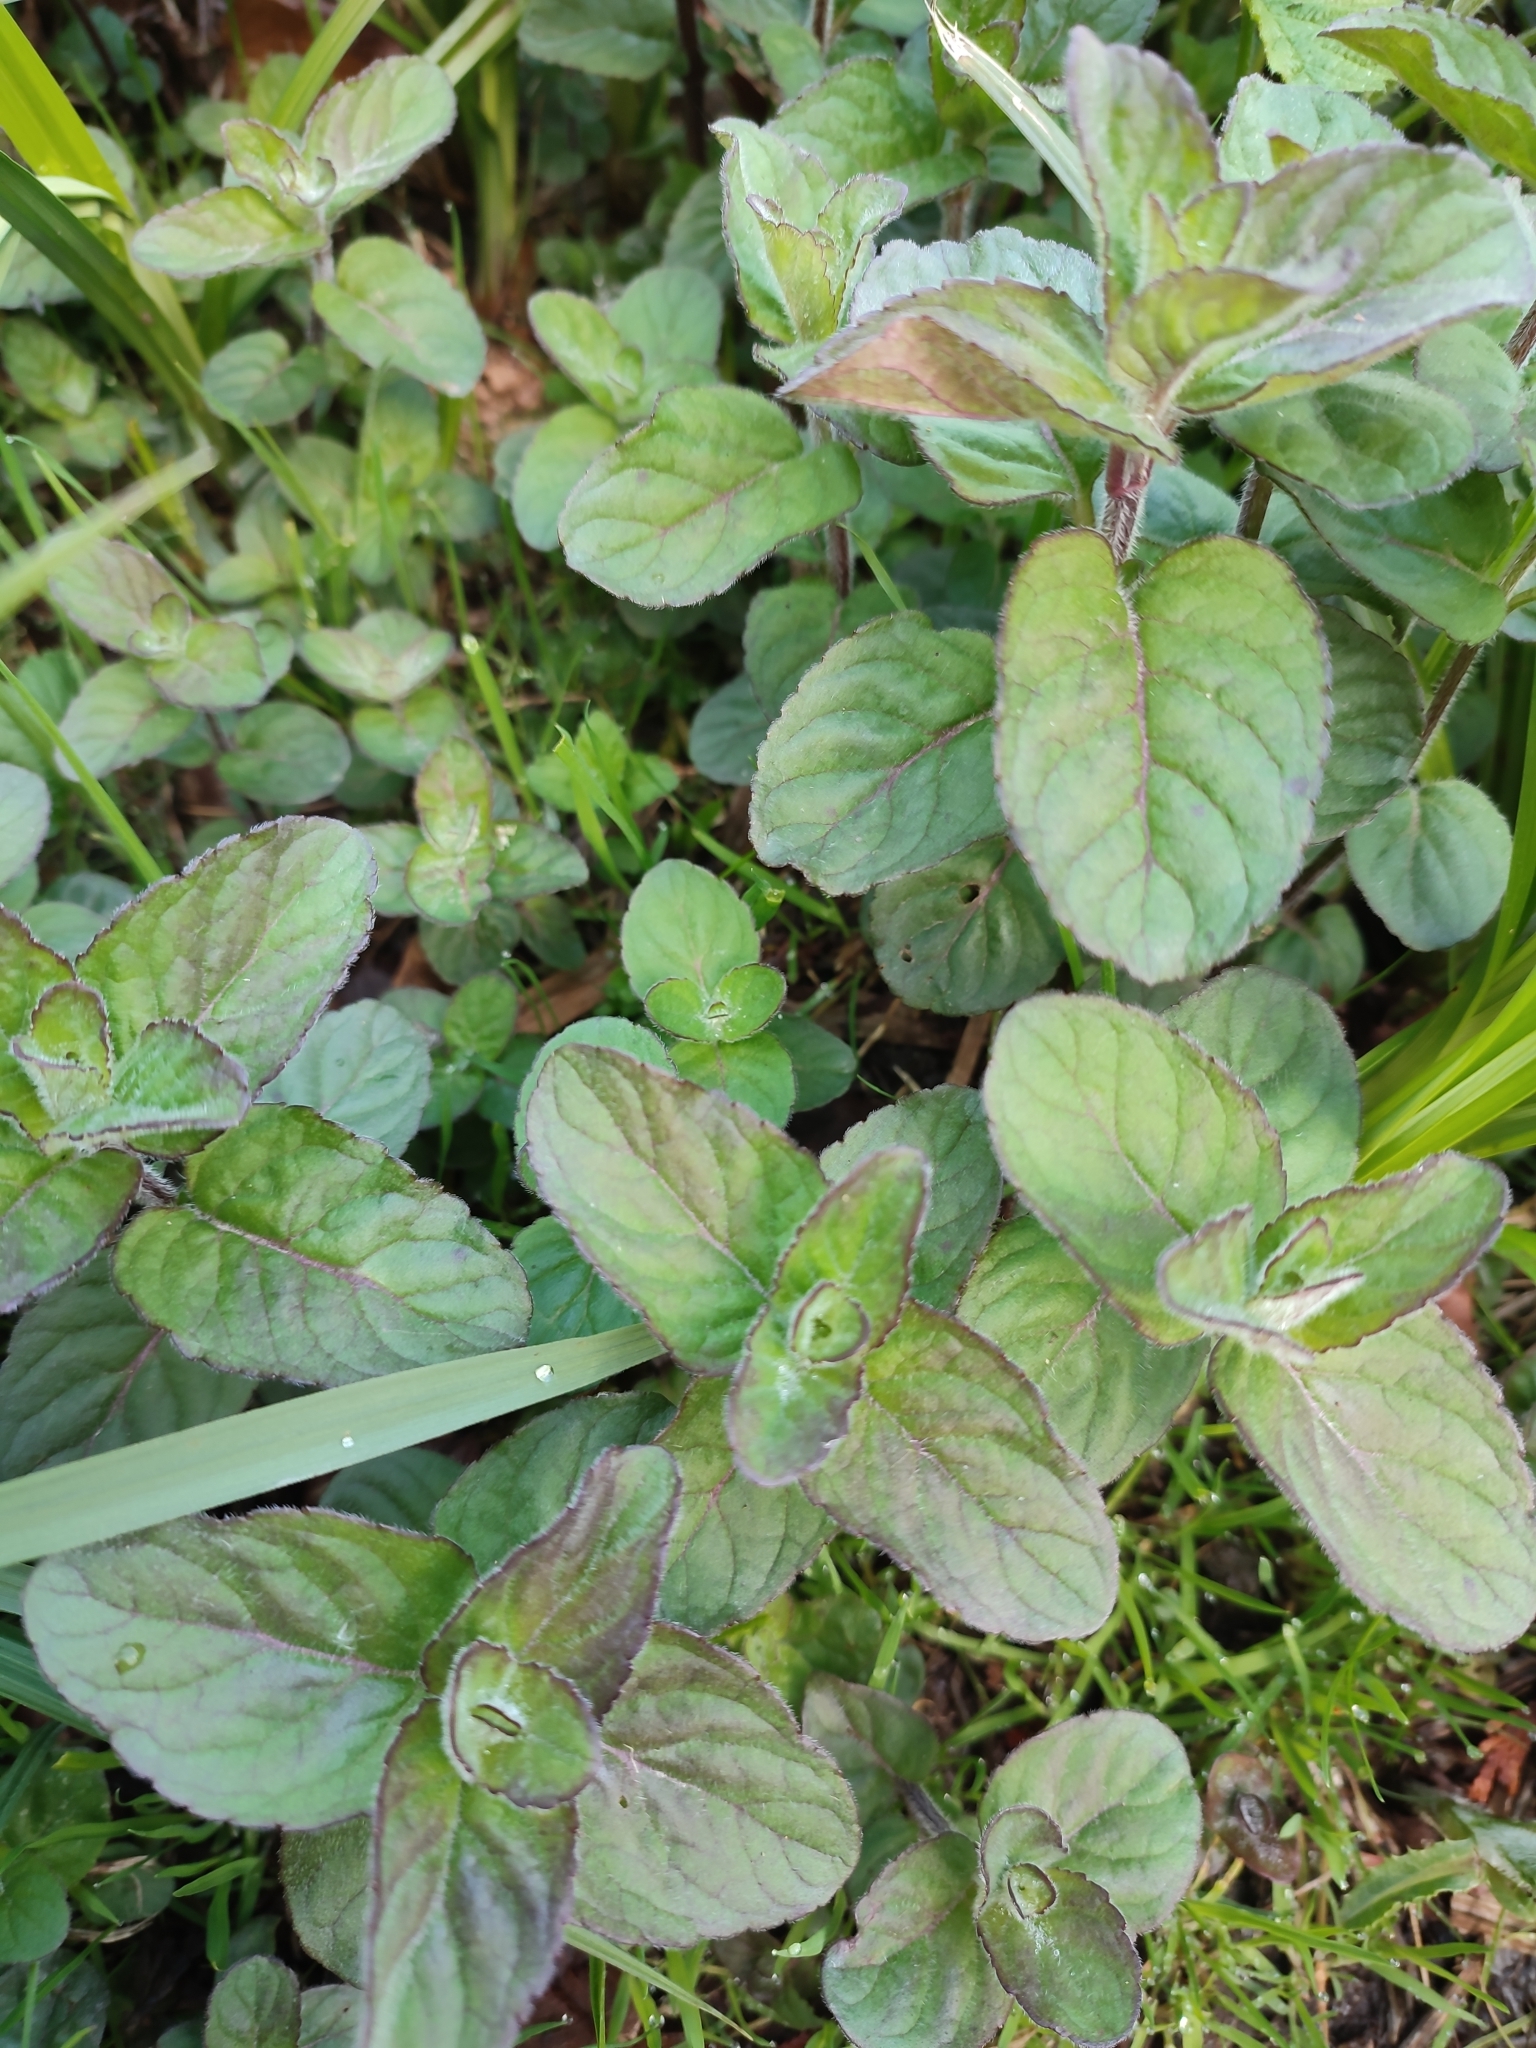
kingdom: Plantae
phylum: Tracheophyta
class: Magnoliopsida
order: Lamiales
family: Lamiaceae
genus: Mentha
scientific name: Mentha aquatica
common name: Water mint
